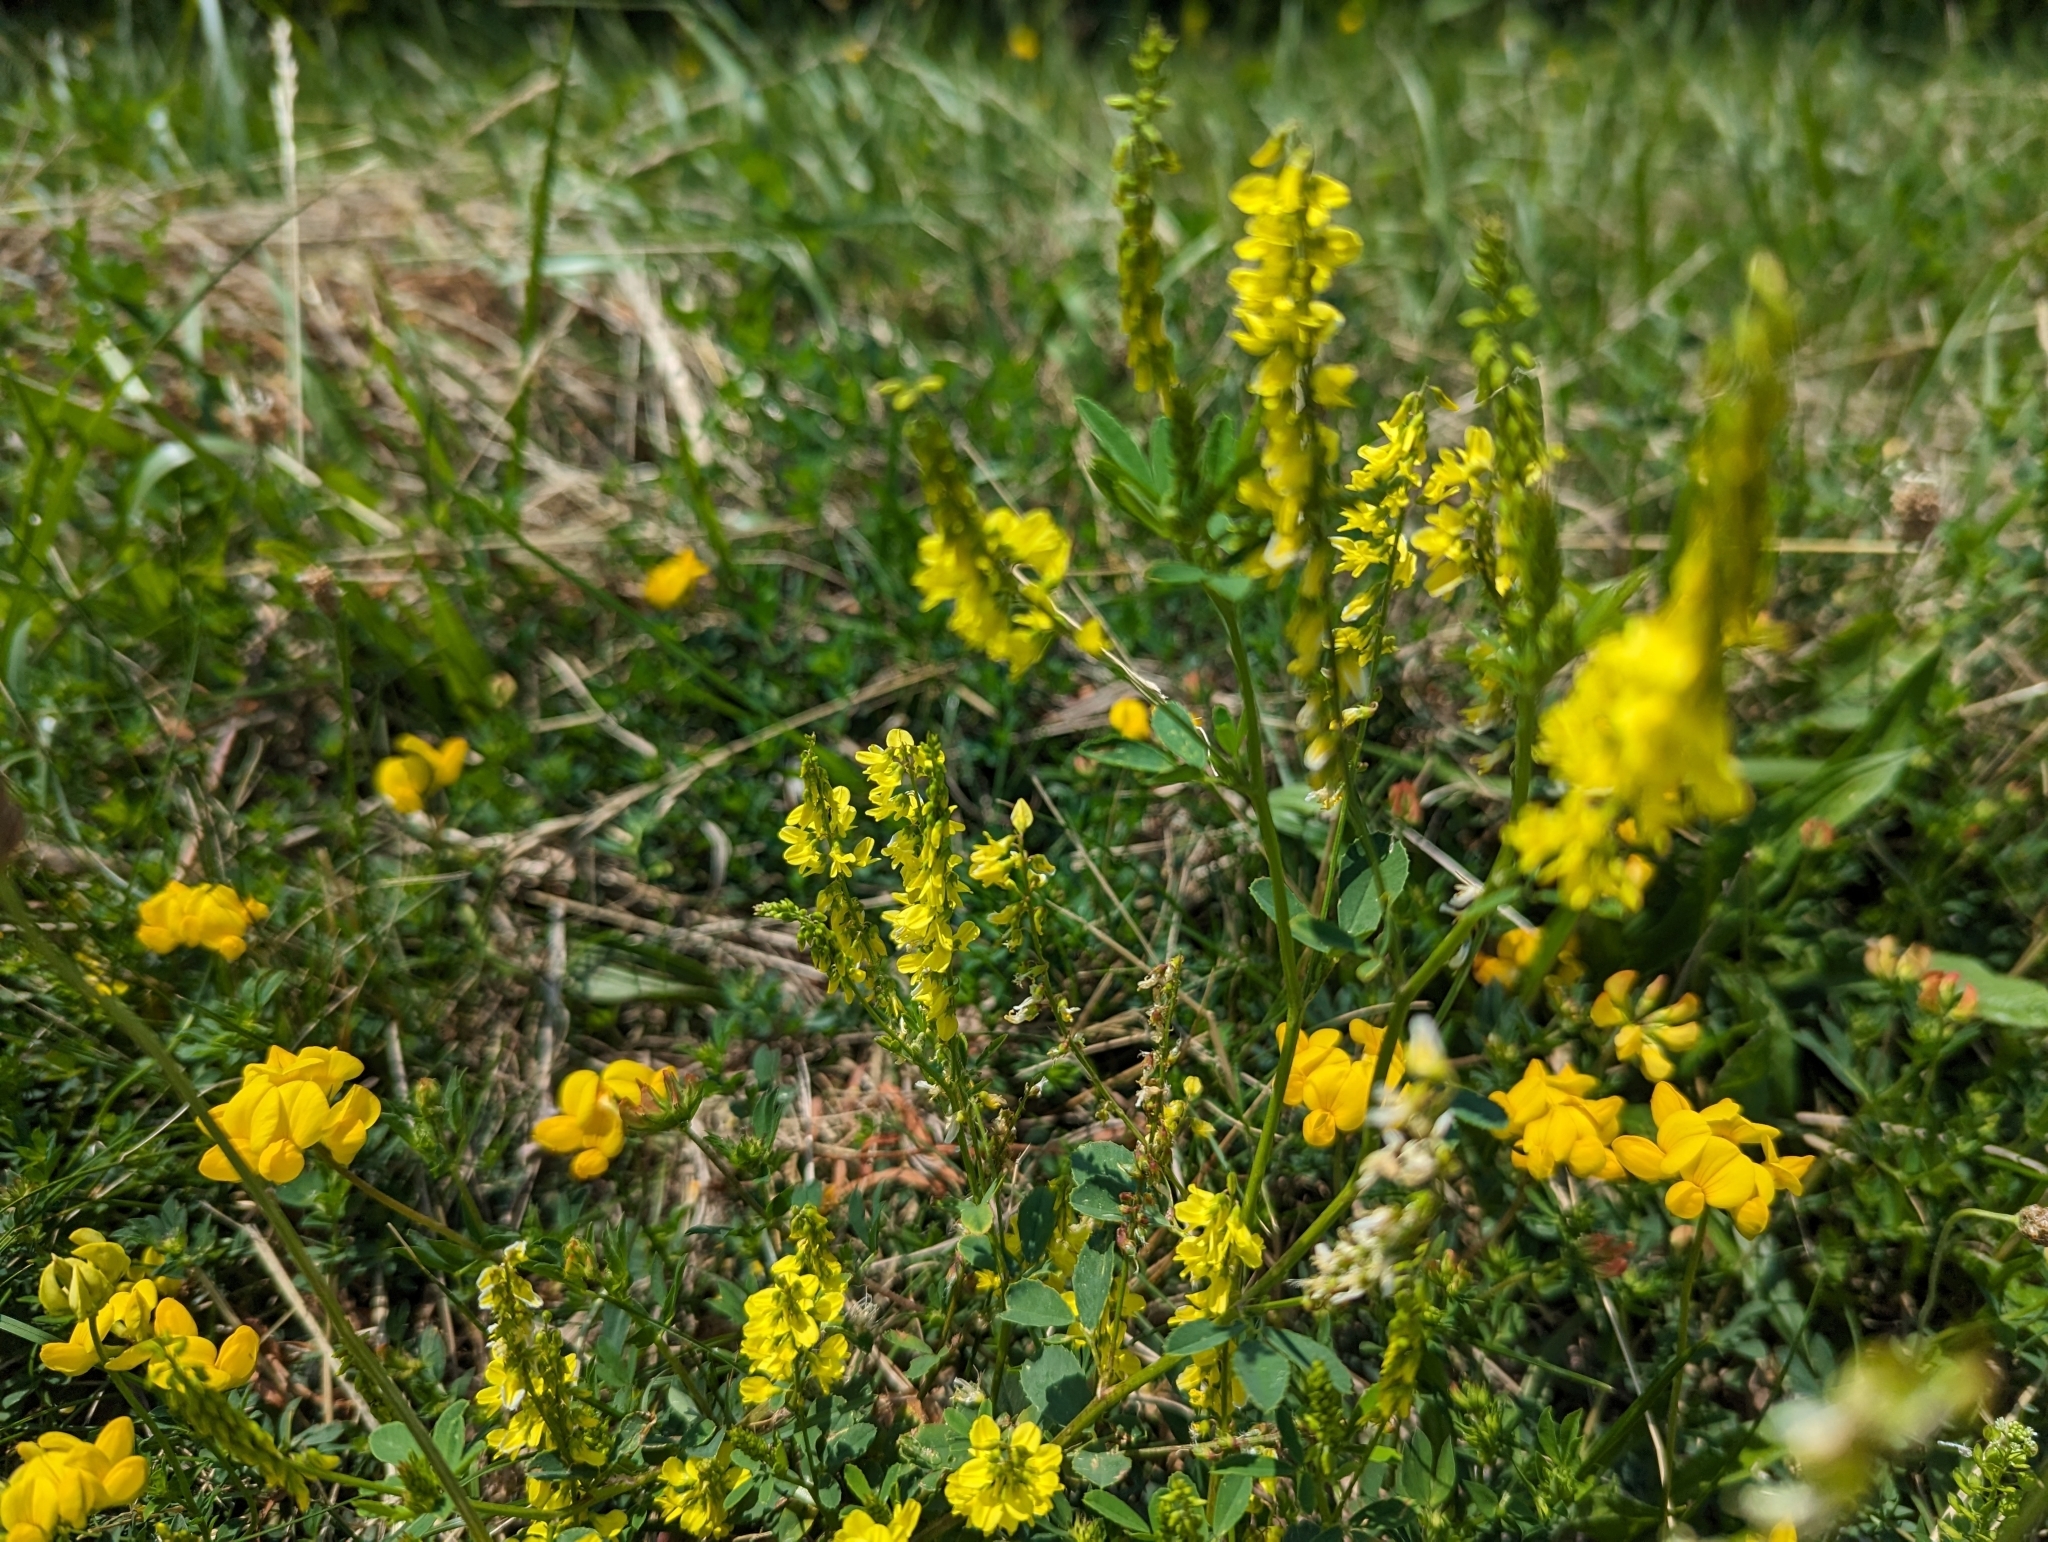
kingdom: Plantae
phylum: Tracheophyta
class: Magnoliopsida
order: Fabales
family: Fabaceae
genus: Melilotus
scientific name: Melilotus officinalis
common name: Sweetclover
